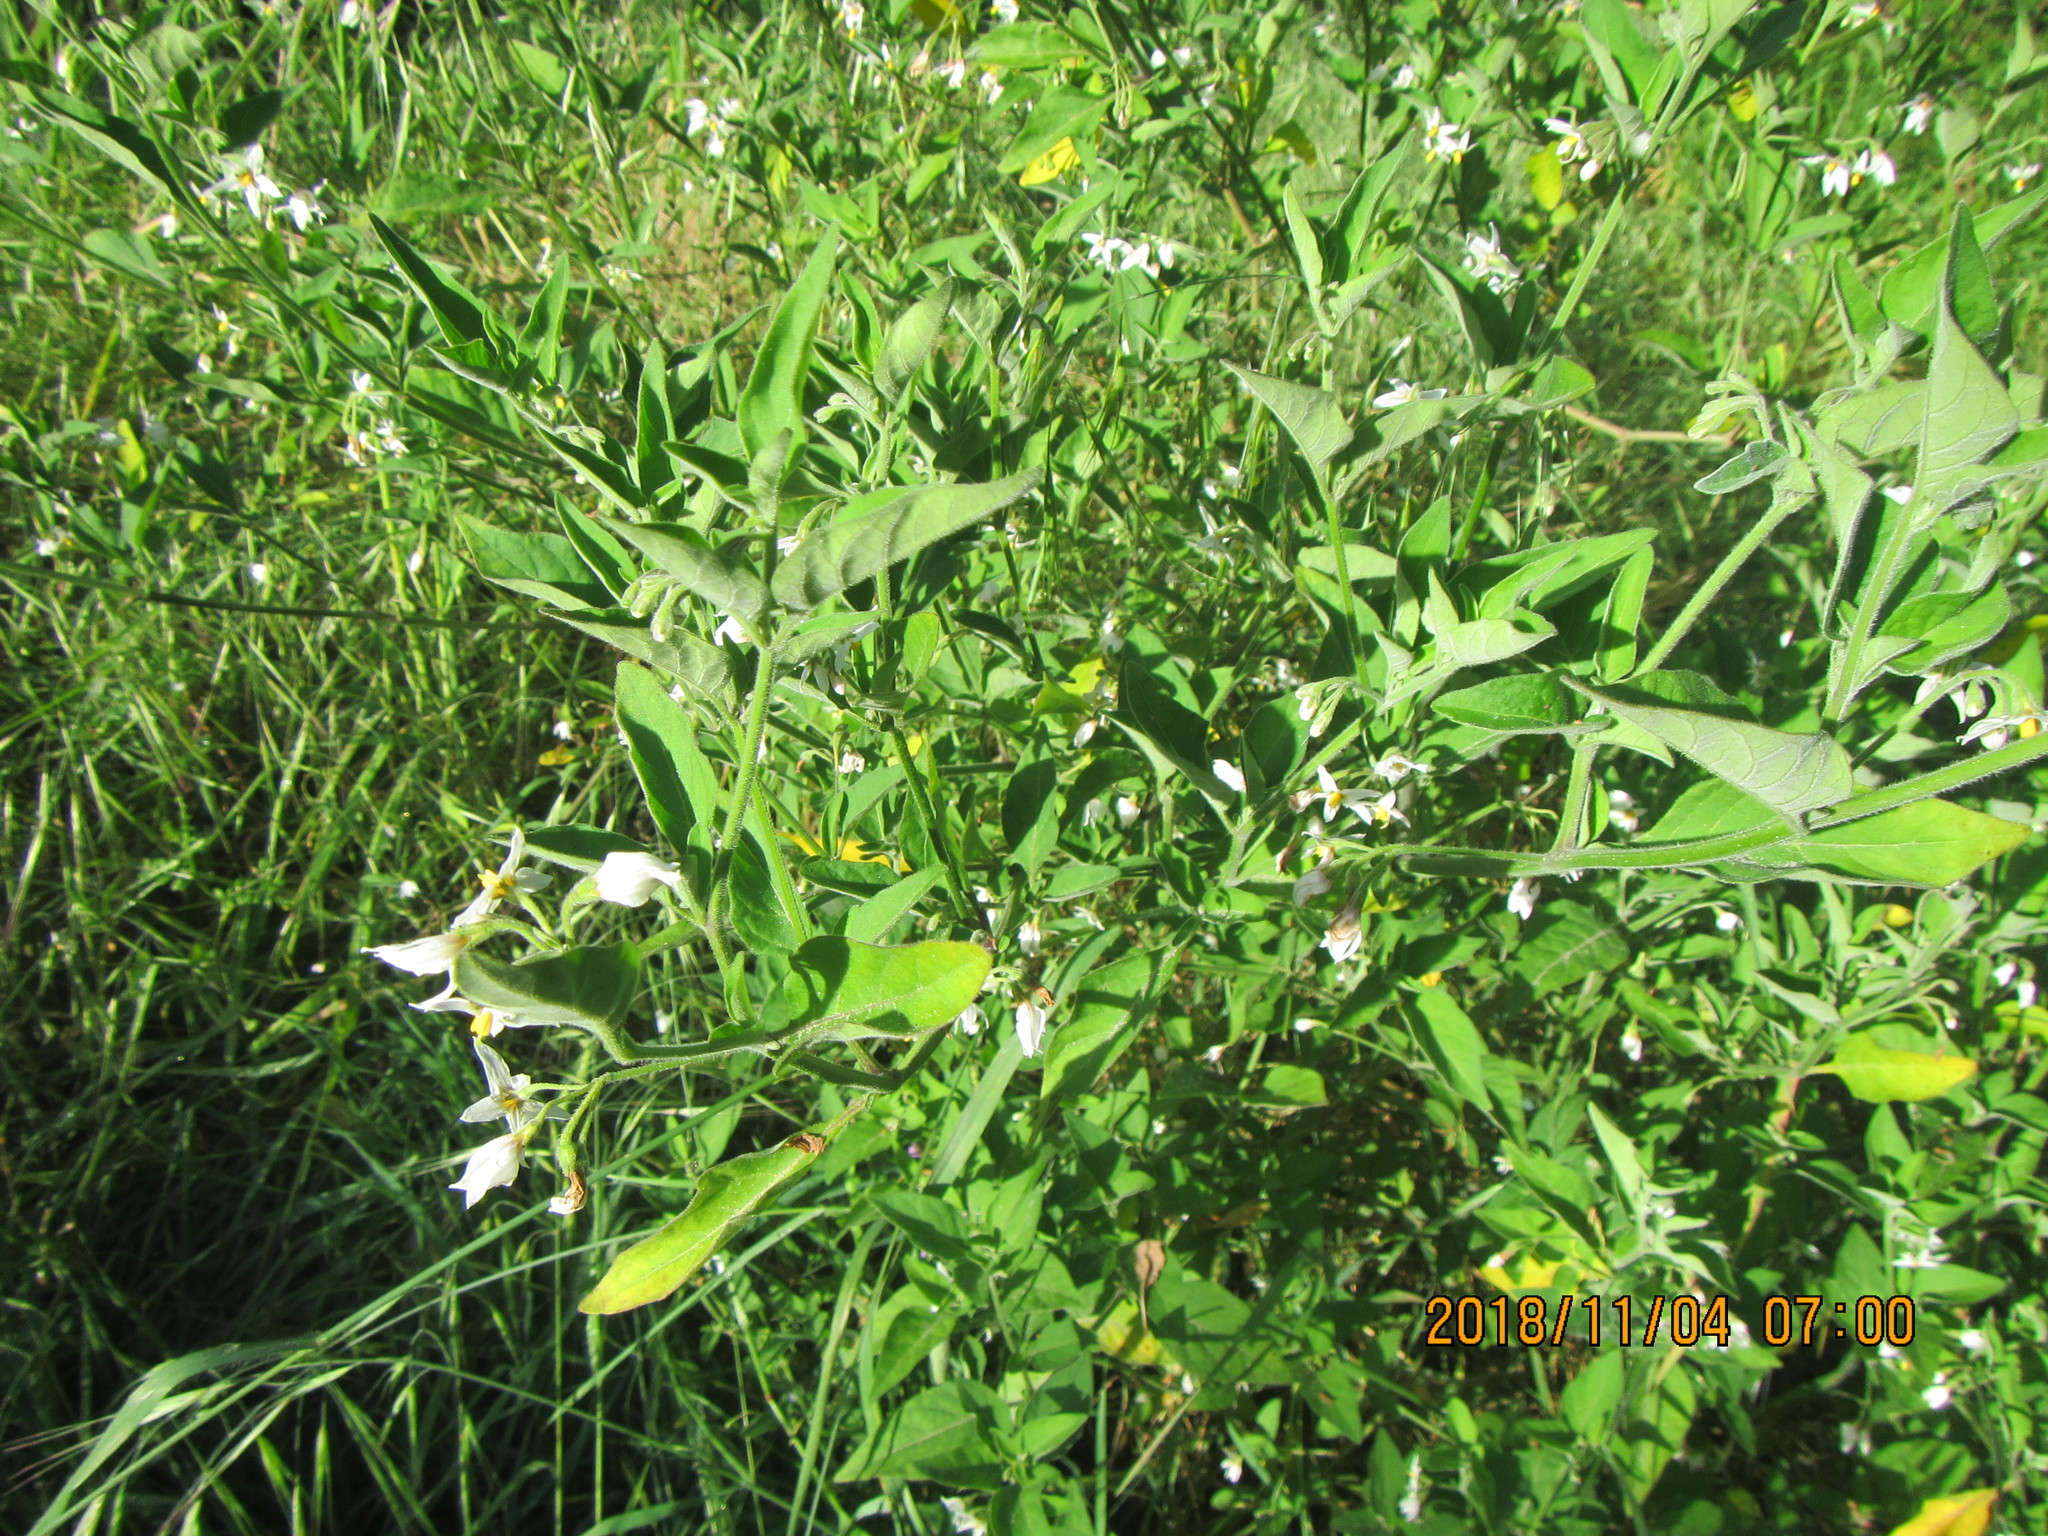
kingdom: Plantae
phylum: Tracheophyta
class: Magnoliopsida
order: Solanales
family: Solanaceae
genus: Solanum
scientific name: Solanum chenopodioides
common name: Tall nightshade
